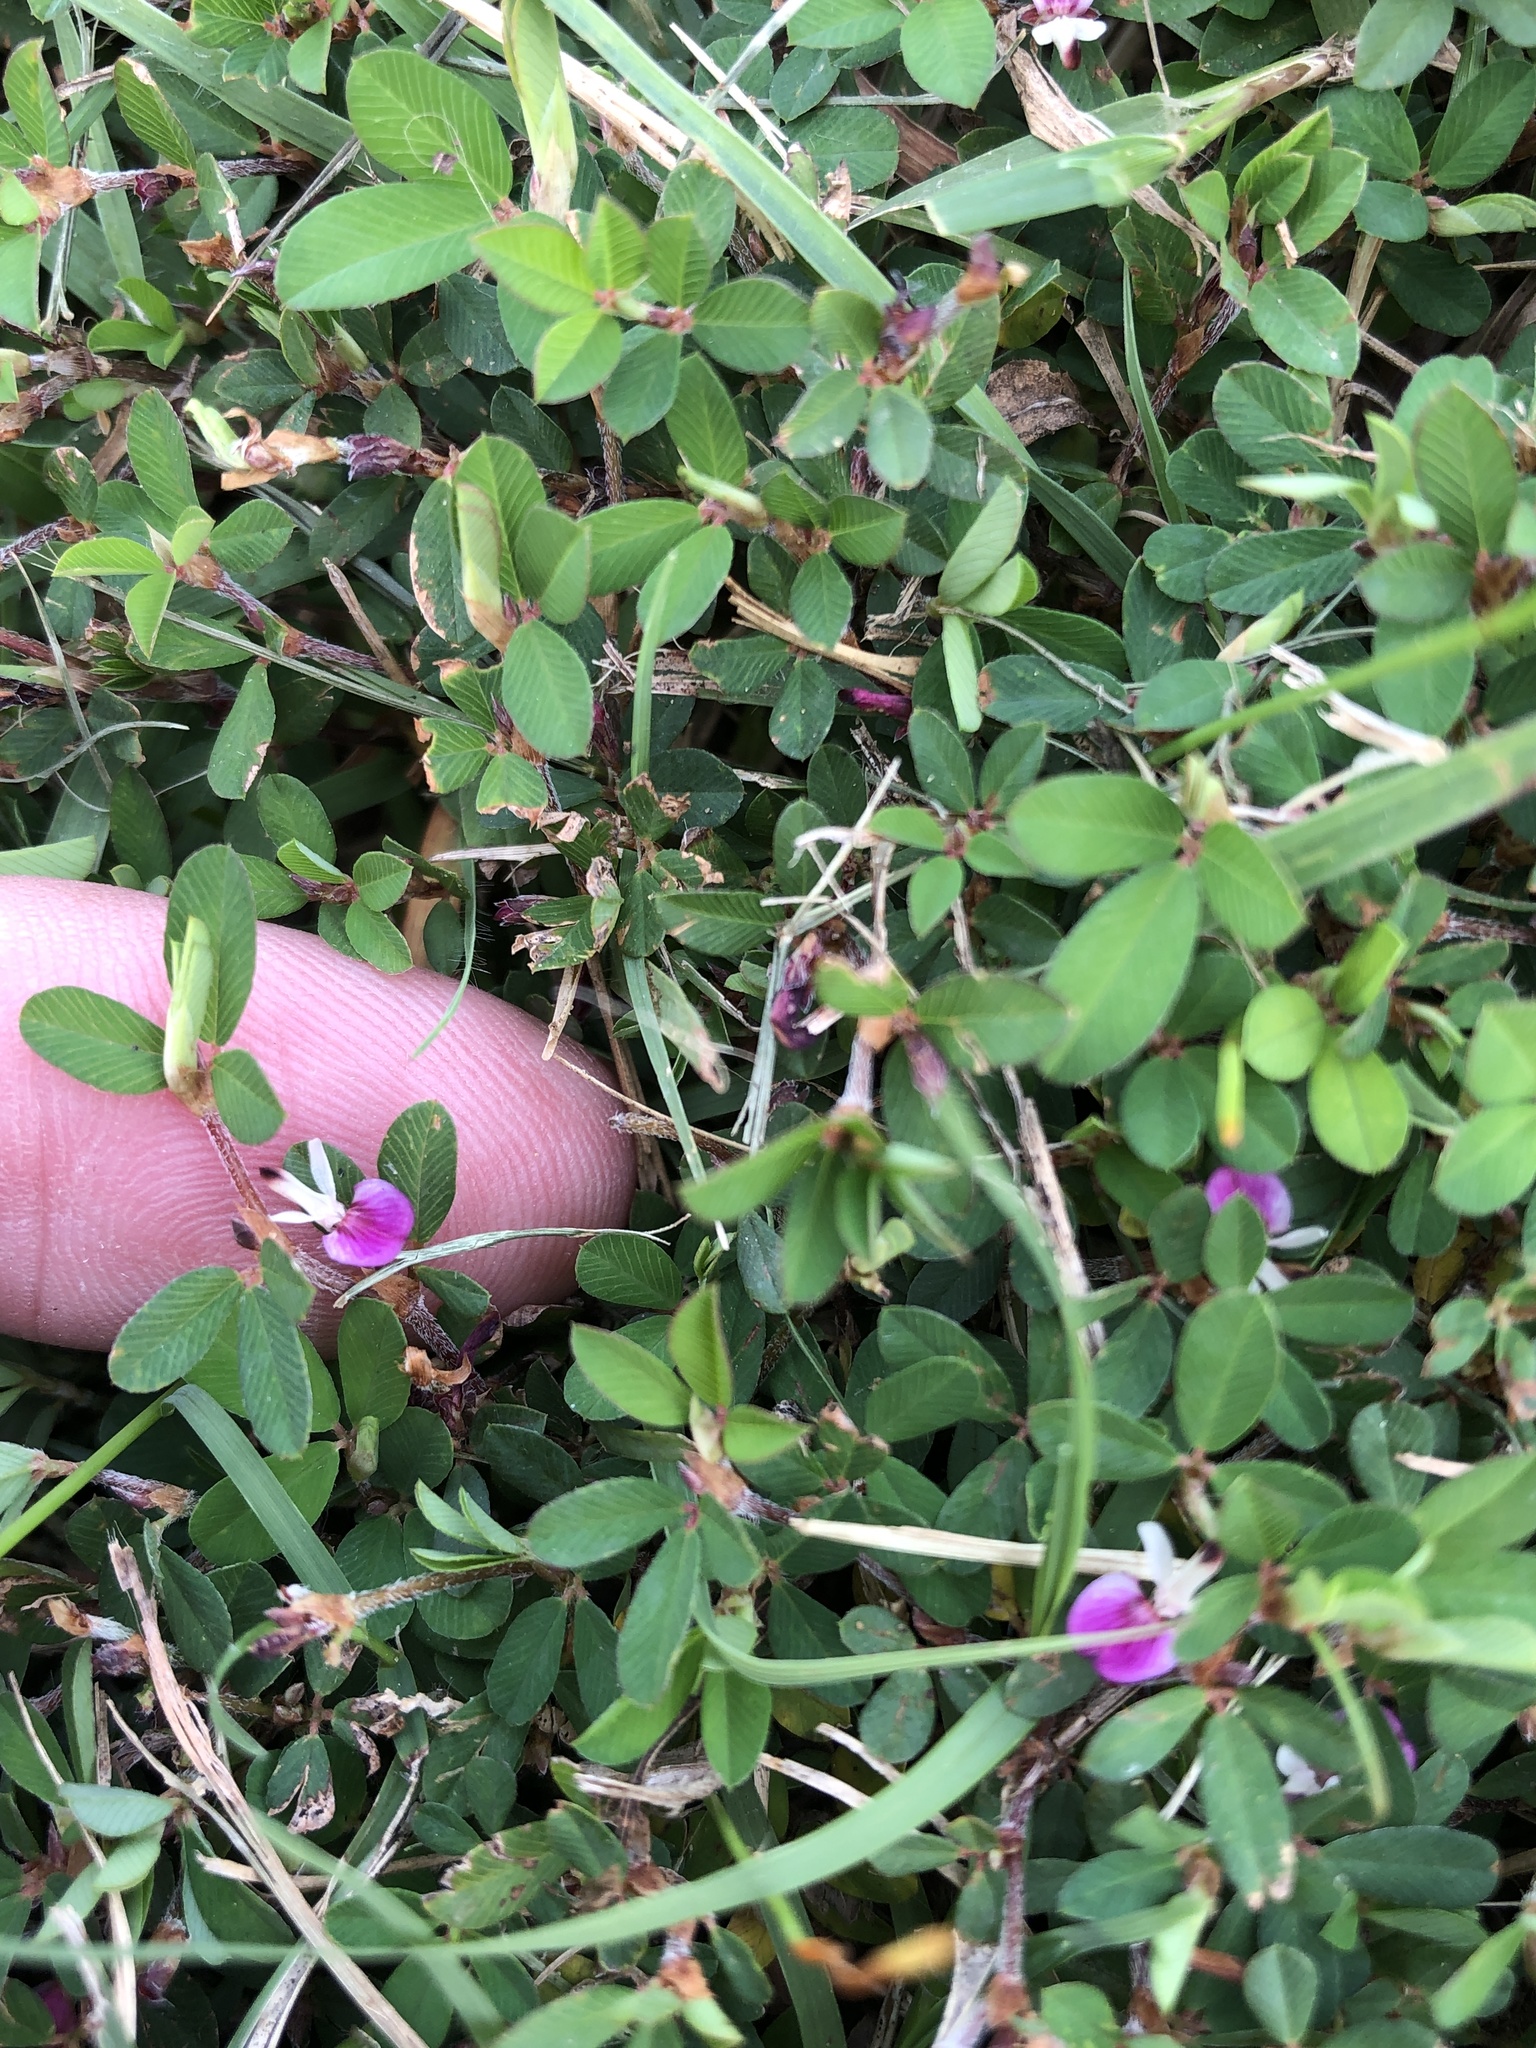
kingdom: Plantae
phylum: Tracheophyta
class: Magnoliopsida
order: Fabales
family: Fabaceae
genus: Kummerowia
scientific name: Kummerowia striata
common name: Japanese clover
